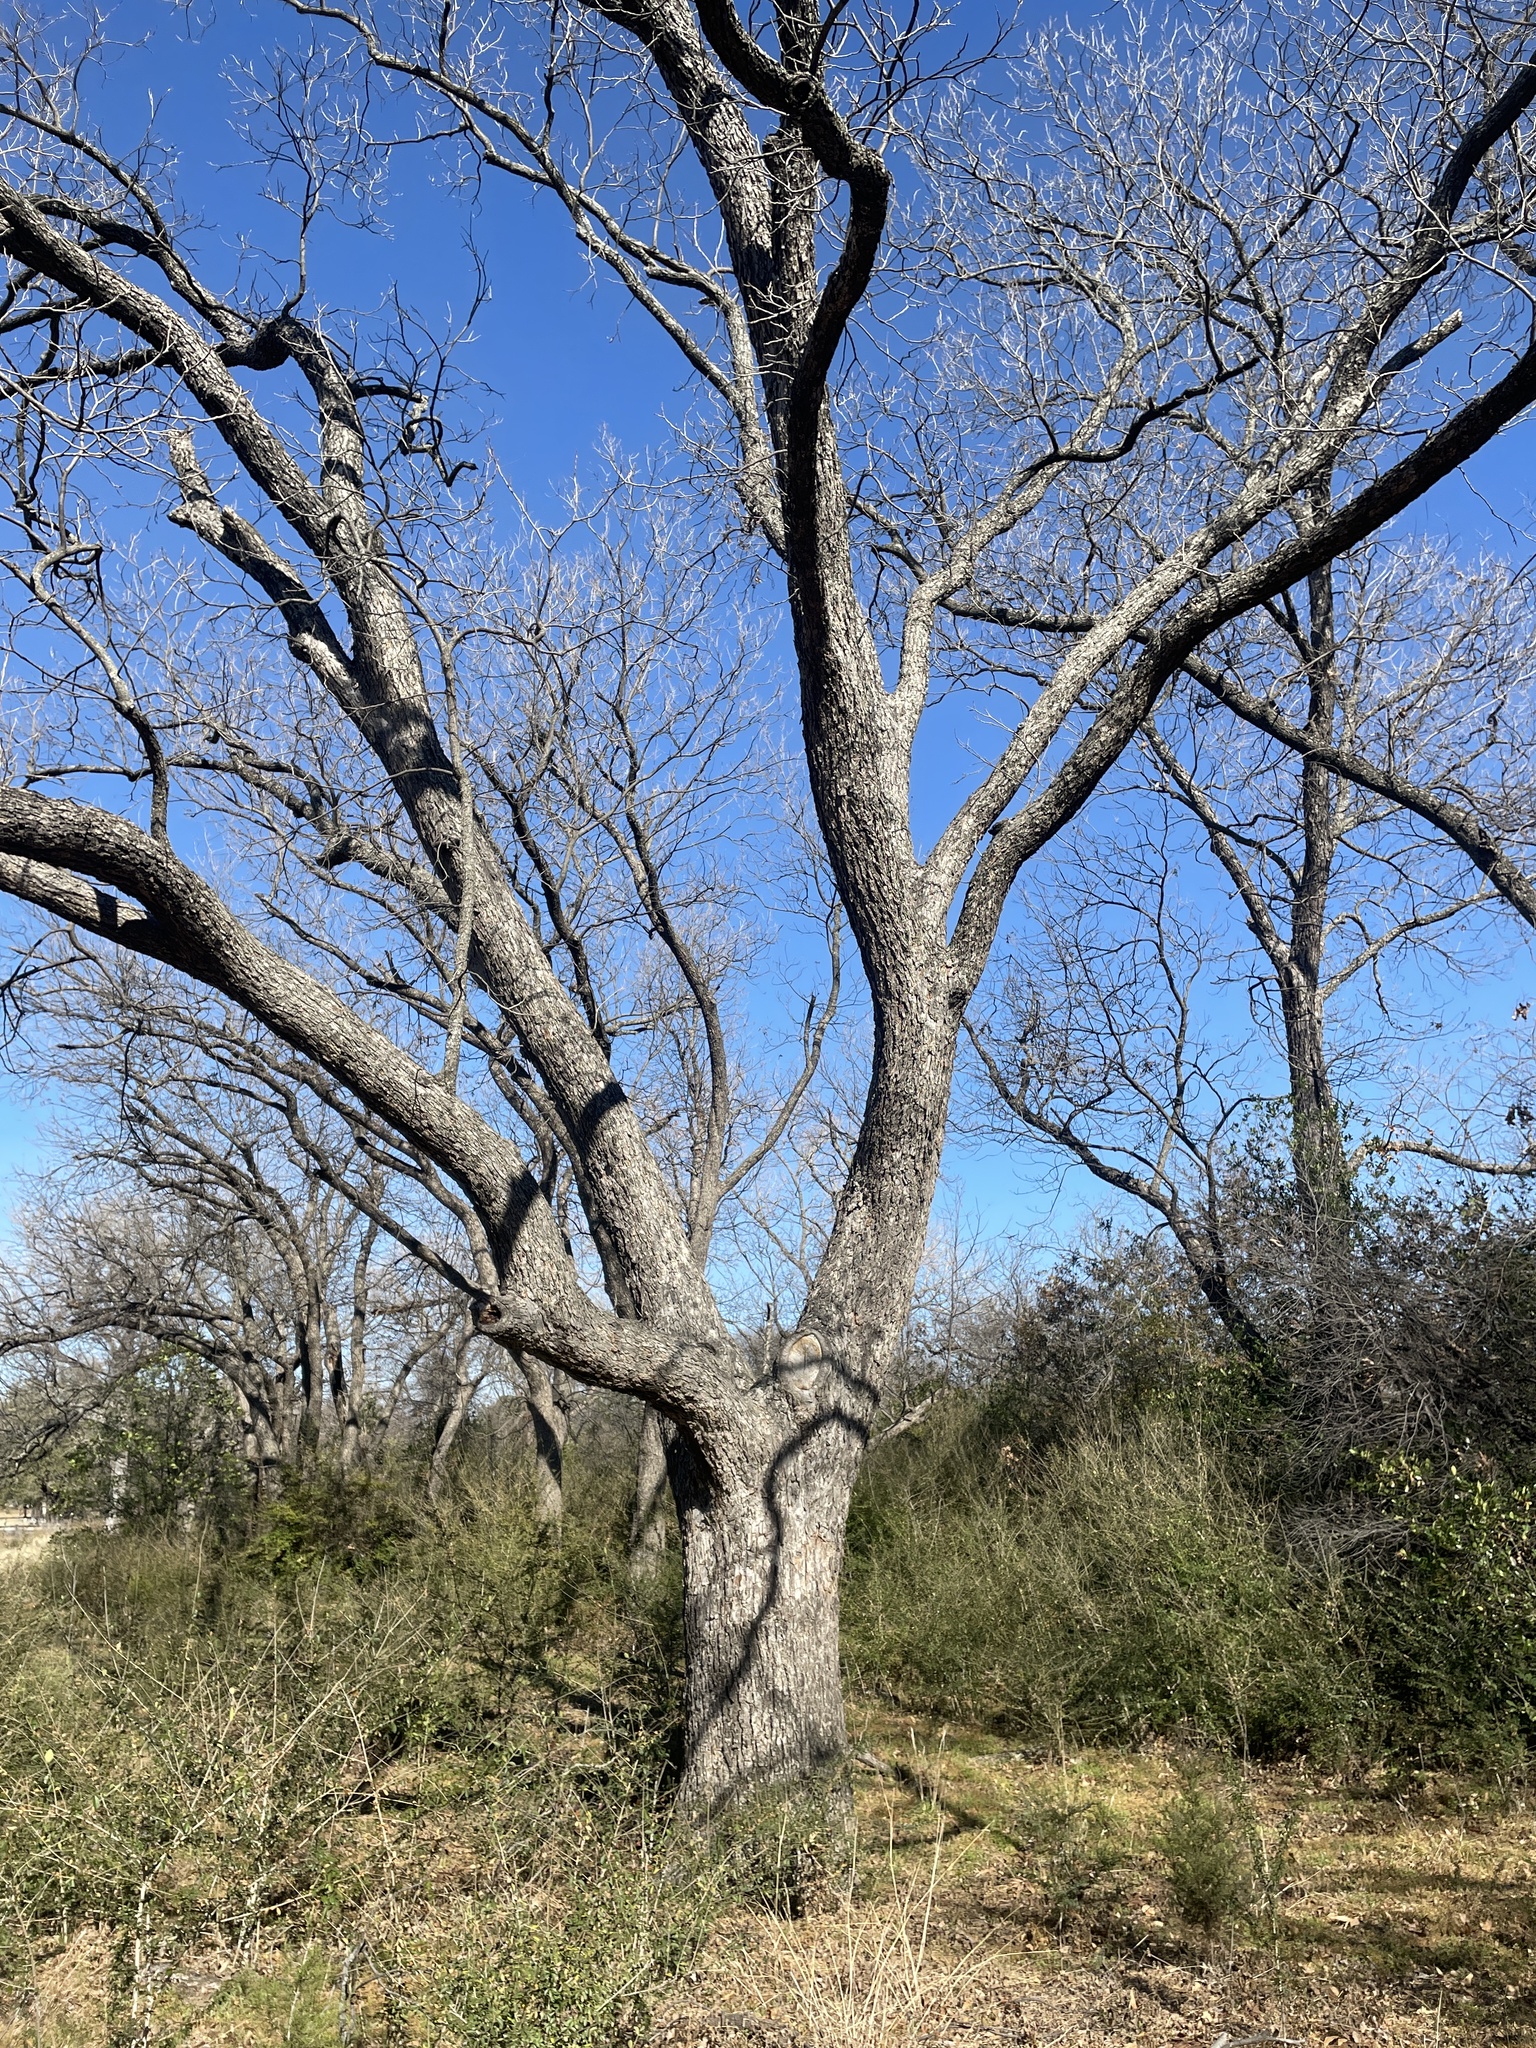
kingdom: Plantae
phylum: Tracheophyta
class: Magnoliopsida
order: Fagales
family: Juglandaceae
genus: Carya
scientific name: Carya illinoinensis
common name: Pecan
